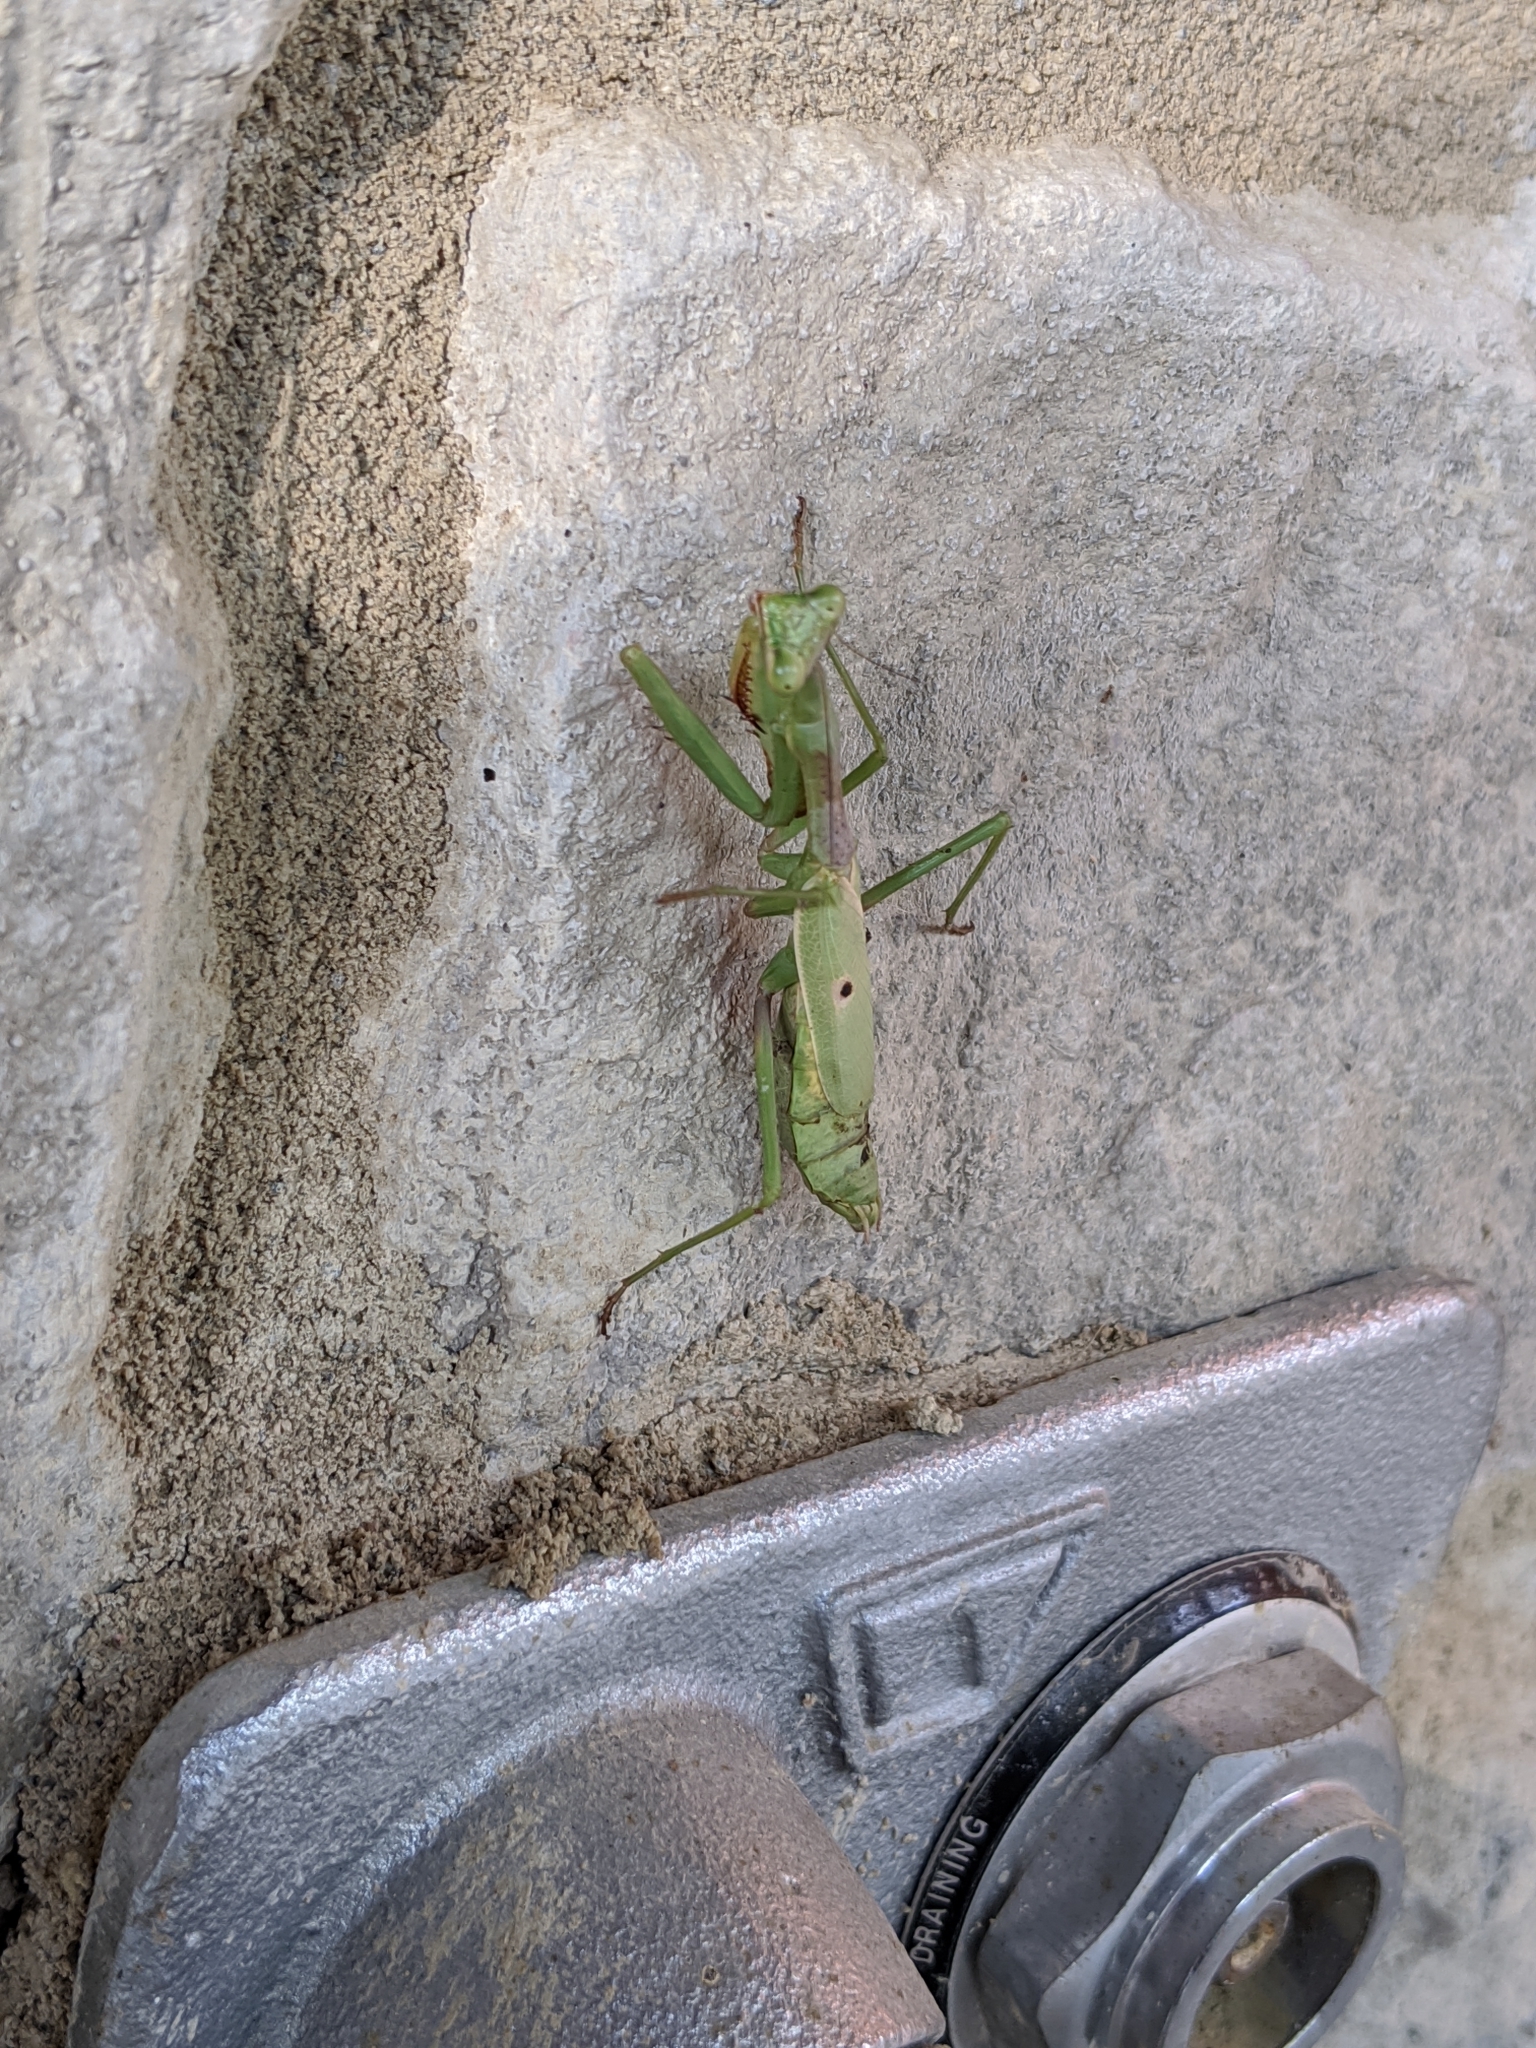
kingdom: Animalia
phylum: Arthropoda
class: Insecta
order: Mantodea
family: Mantidae
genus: Stagmomantis
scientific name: Stagmomantis carolina
